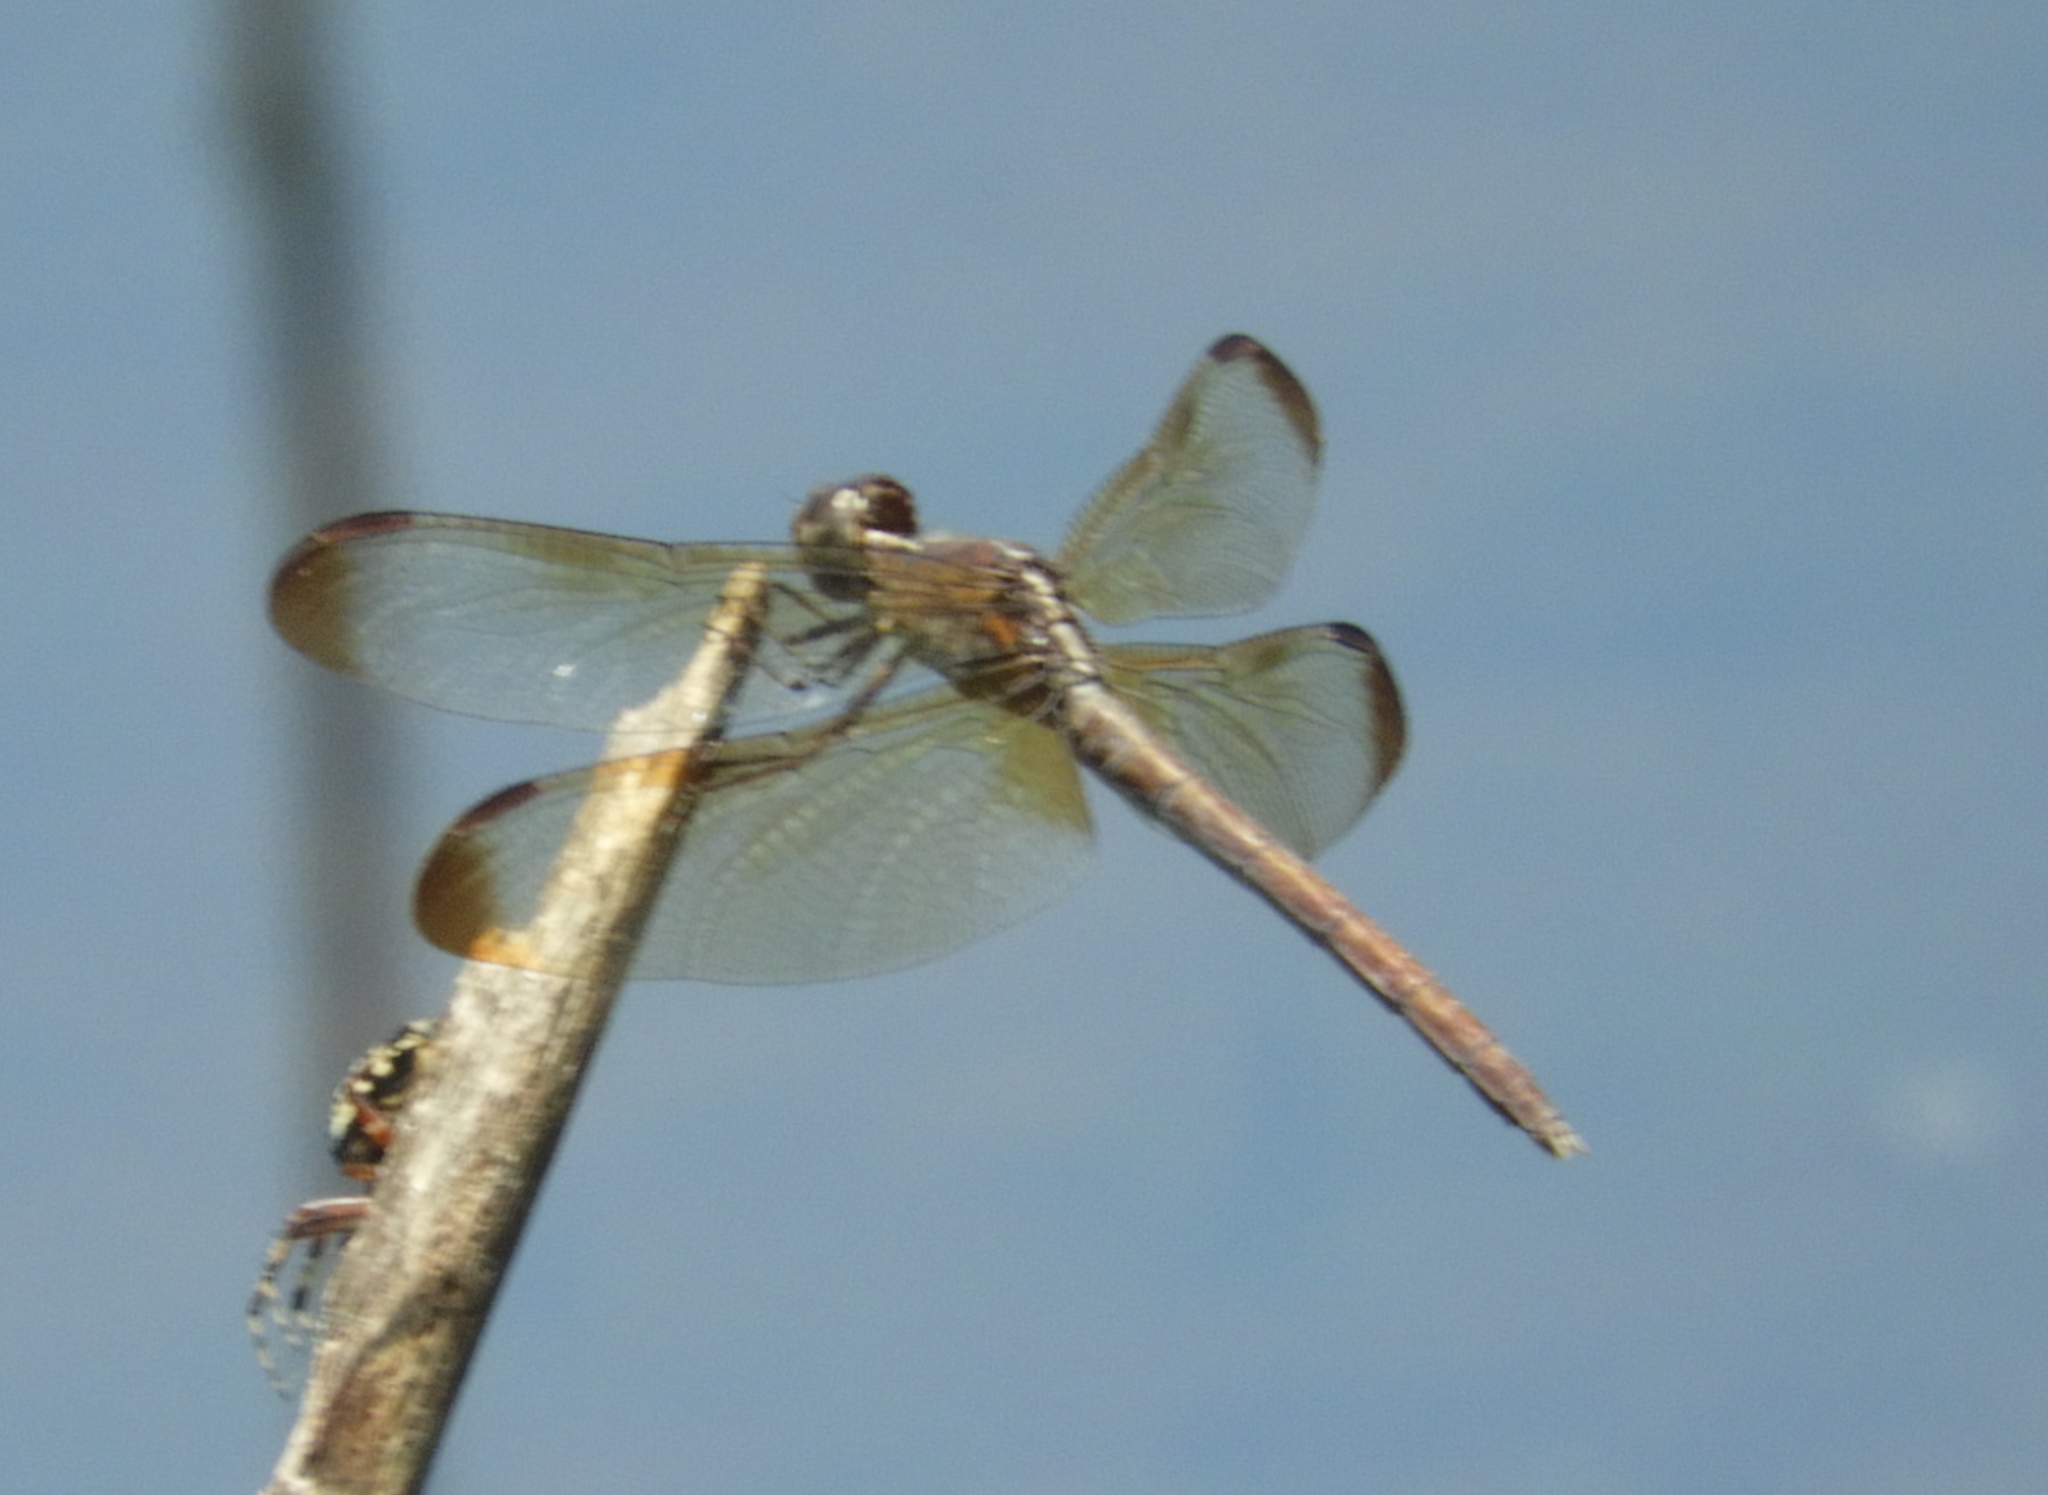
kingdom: Animalia
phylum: Arthropoda
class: Insecta
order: Odonata
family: Libellulidae
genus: Erythrodiplax
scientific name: Erythrodiplax funerea
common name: Black-winged dragonlet
